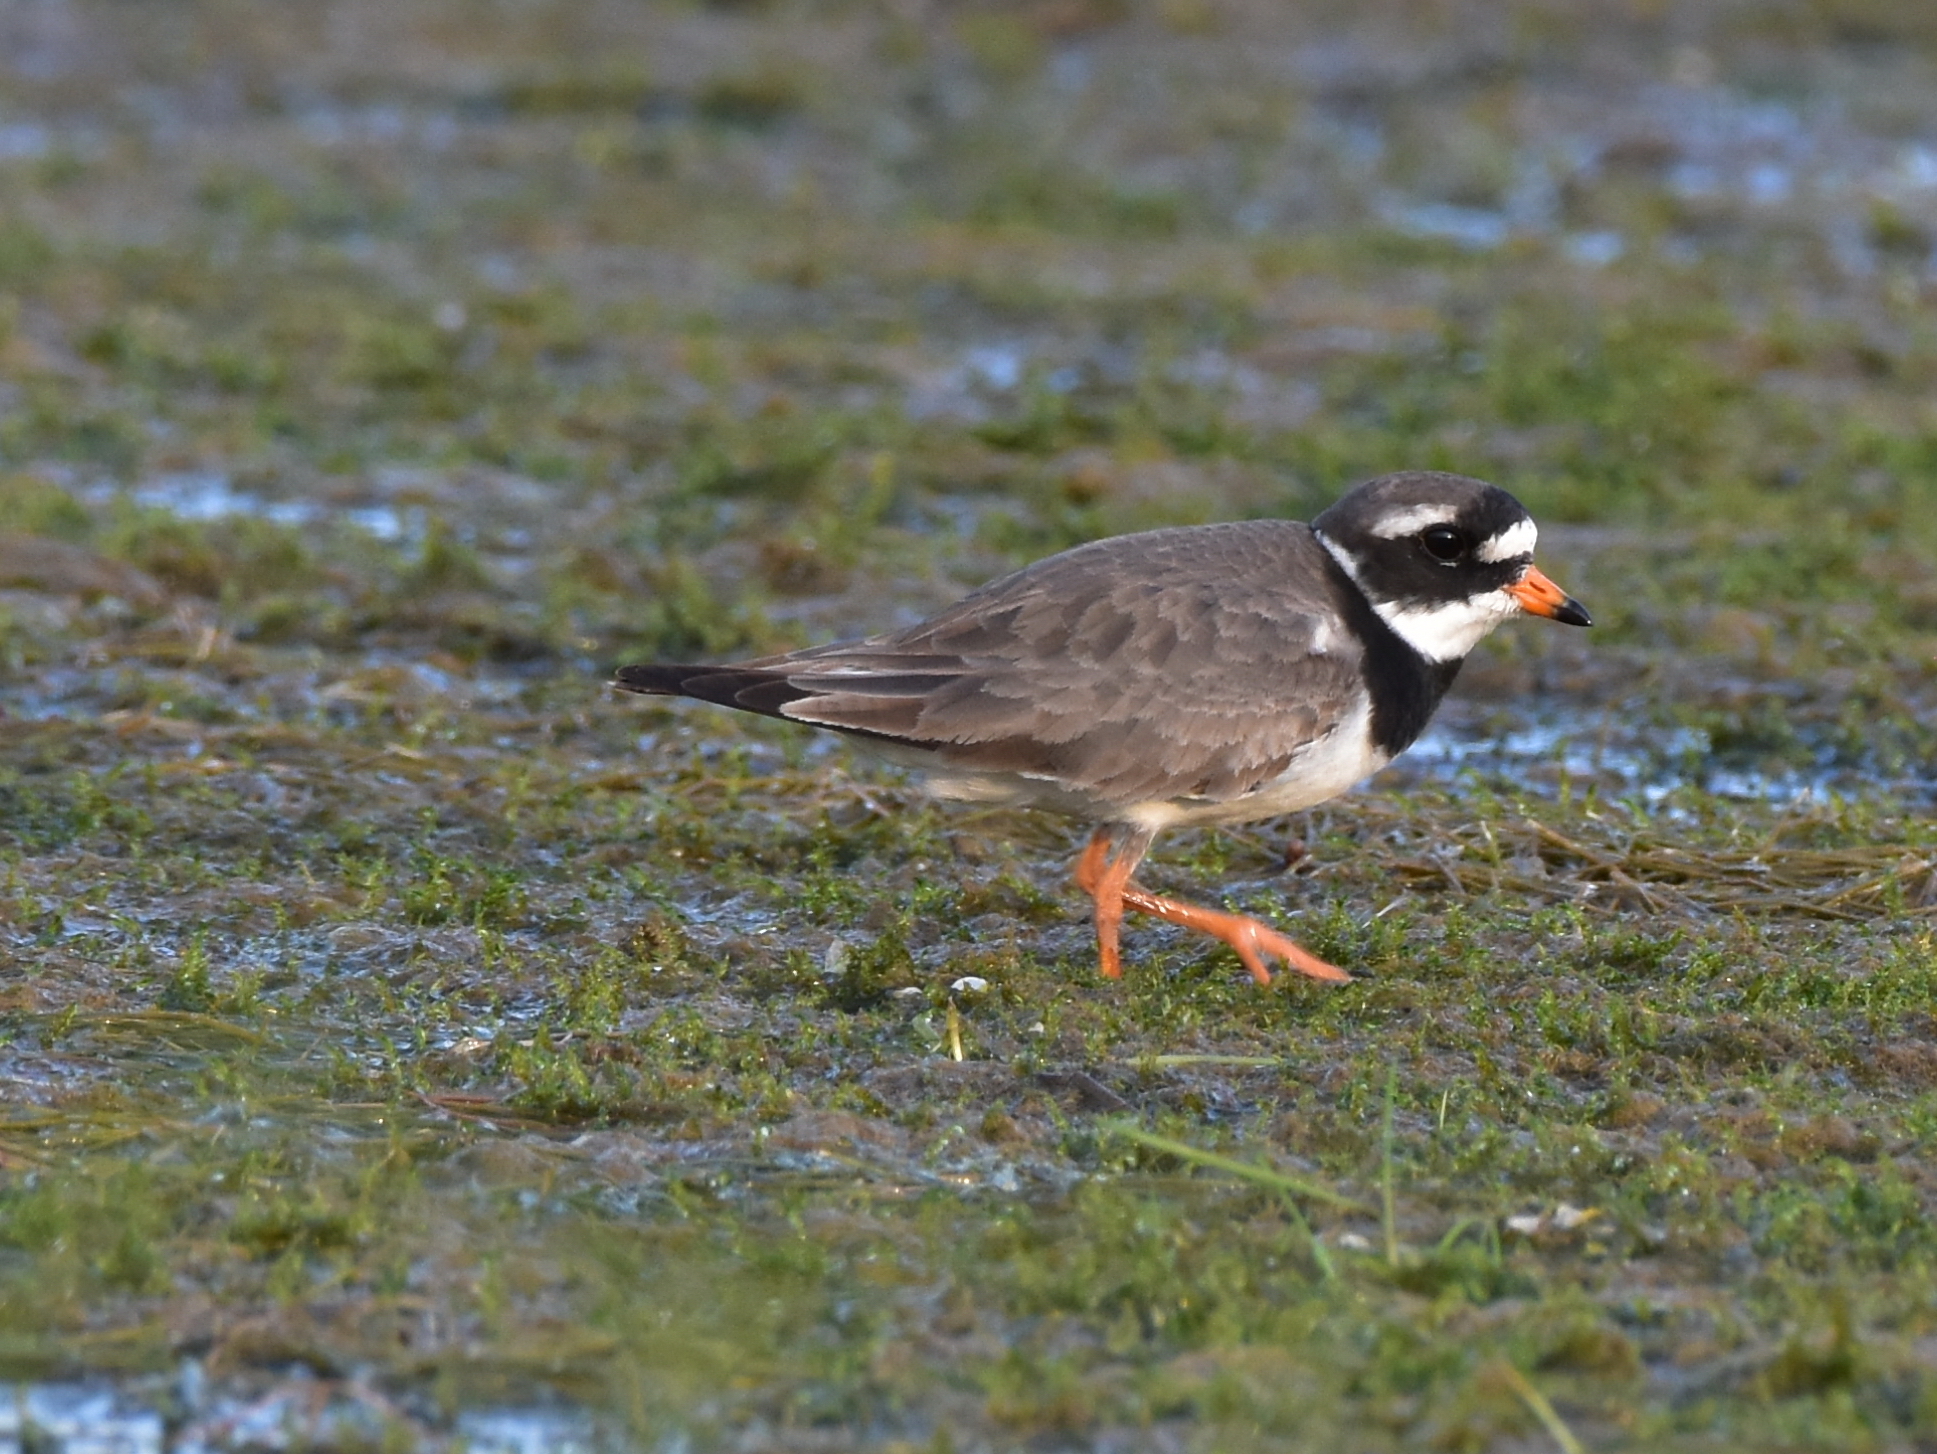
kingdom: Animalia
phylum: Chordata
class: Aves
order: Charadriiformes
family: Charadriidae
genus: Charadrius
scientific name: Charadrius hiaticula
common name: Common ringed plover
